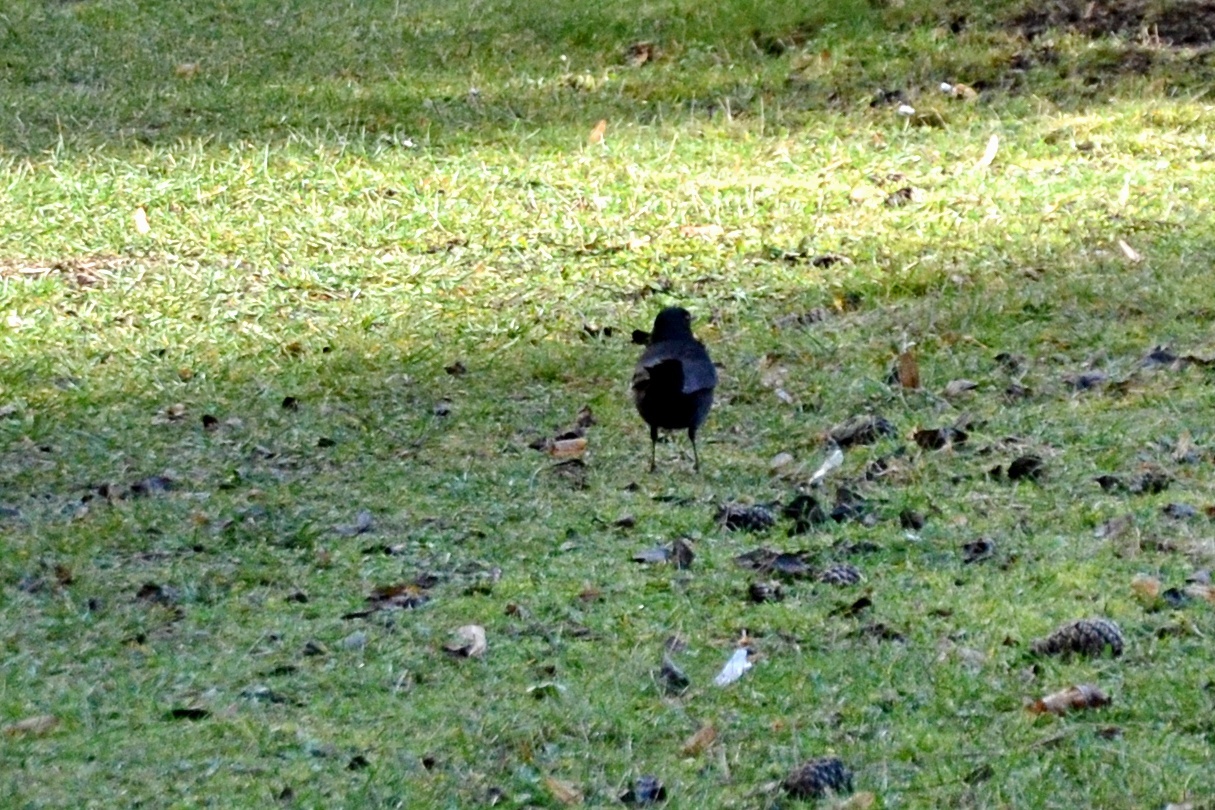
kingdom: Animalia
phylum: Chordata
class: Aves
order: Passeriformes
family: Turdidae
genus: Turdus
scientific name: Turdus merula
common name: Common blackbird
